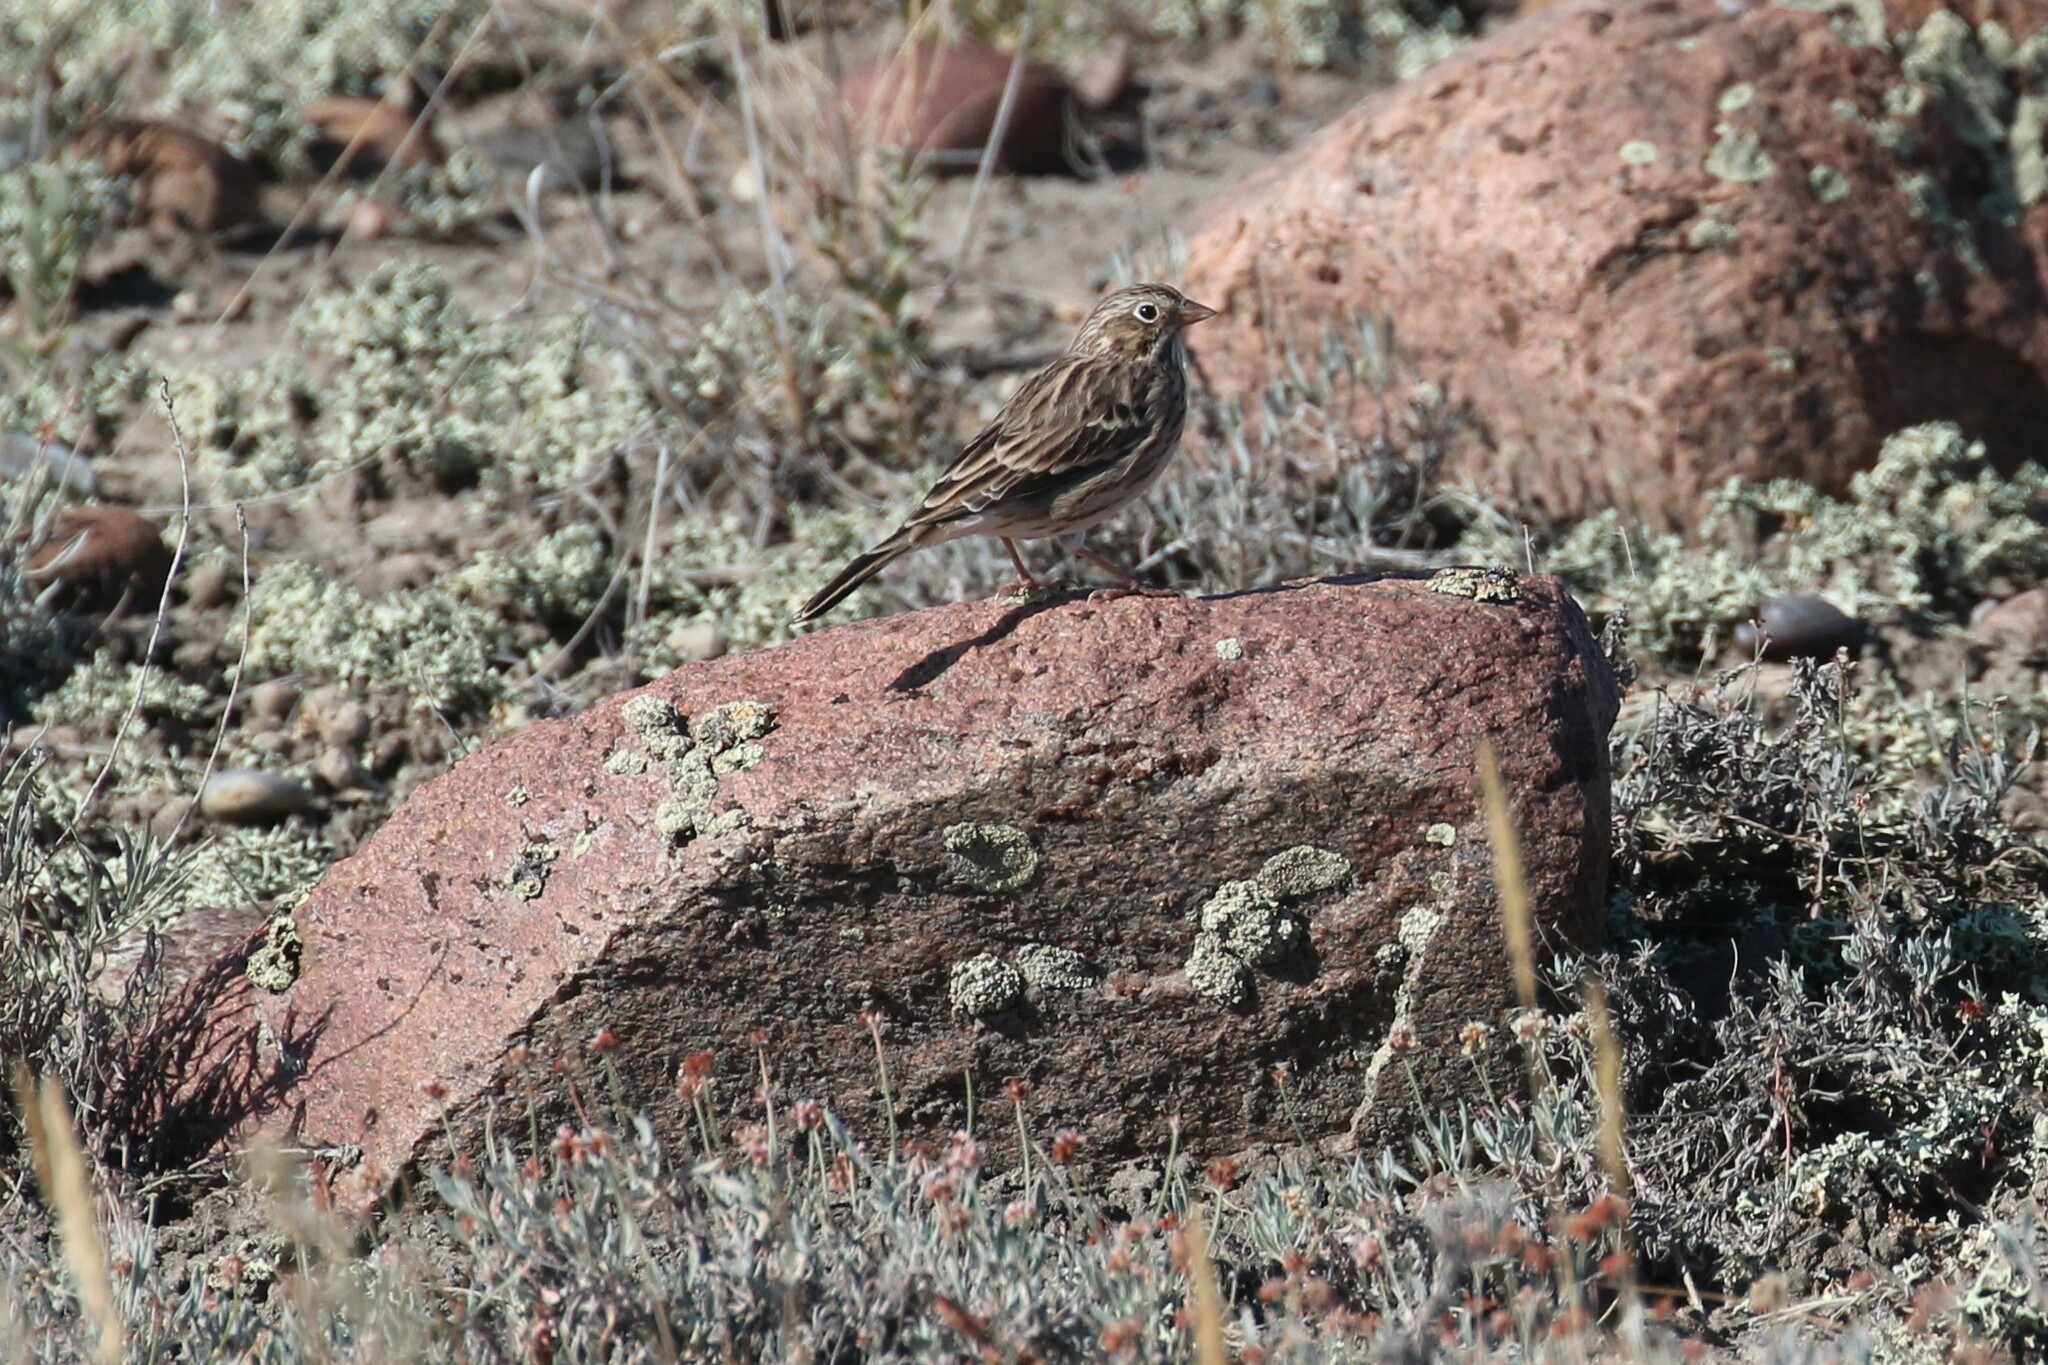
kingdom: Animalia
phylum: Chordata
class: Aves
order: Passeriformes
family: Passerellidae
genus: Pooecetes
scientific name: Pooecetes gramineus
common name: Vesper sparrow
